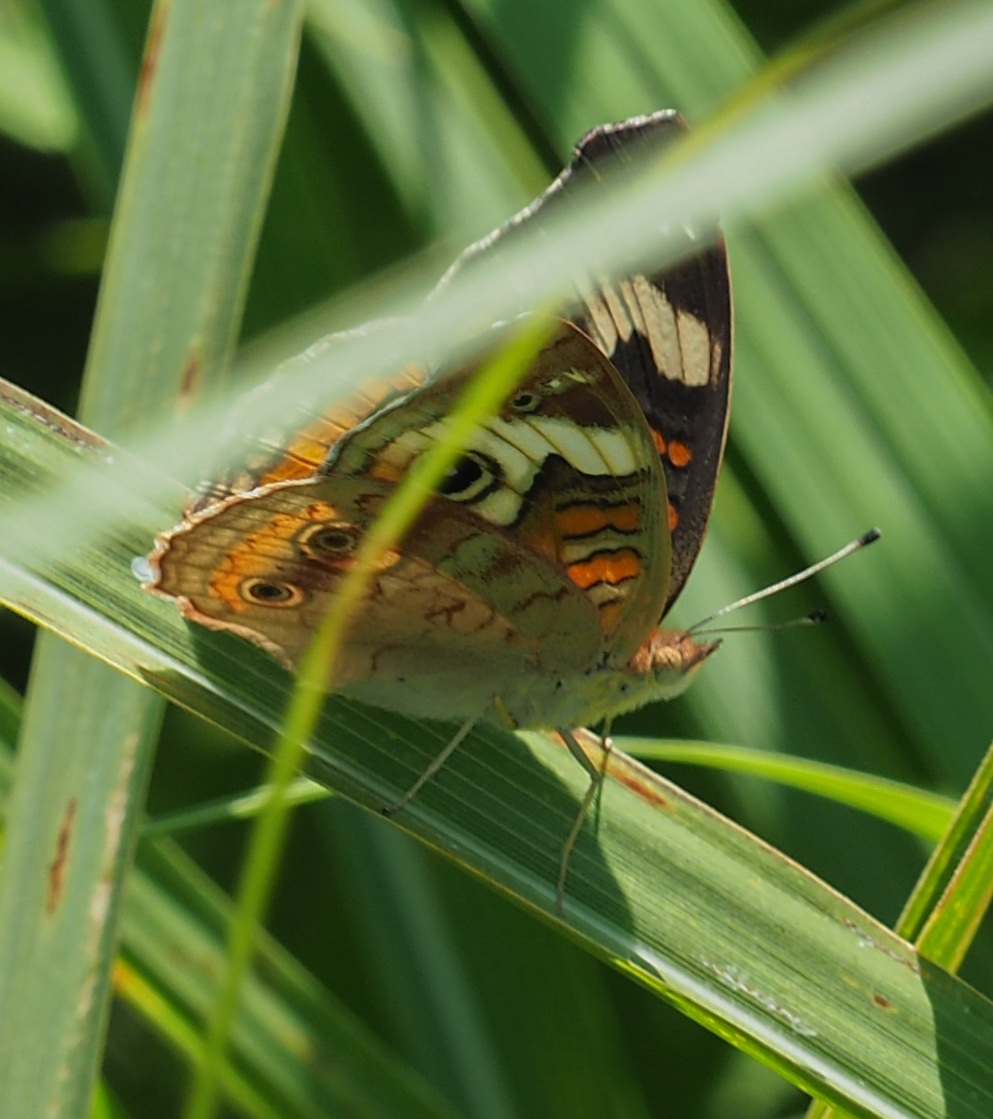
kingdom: Animalia
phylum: Arthropoda
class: Insecta
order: Lepidoptera
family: Nymphalidae
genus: Junonia
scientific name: Junonia coenia
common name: Common buckeye
